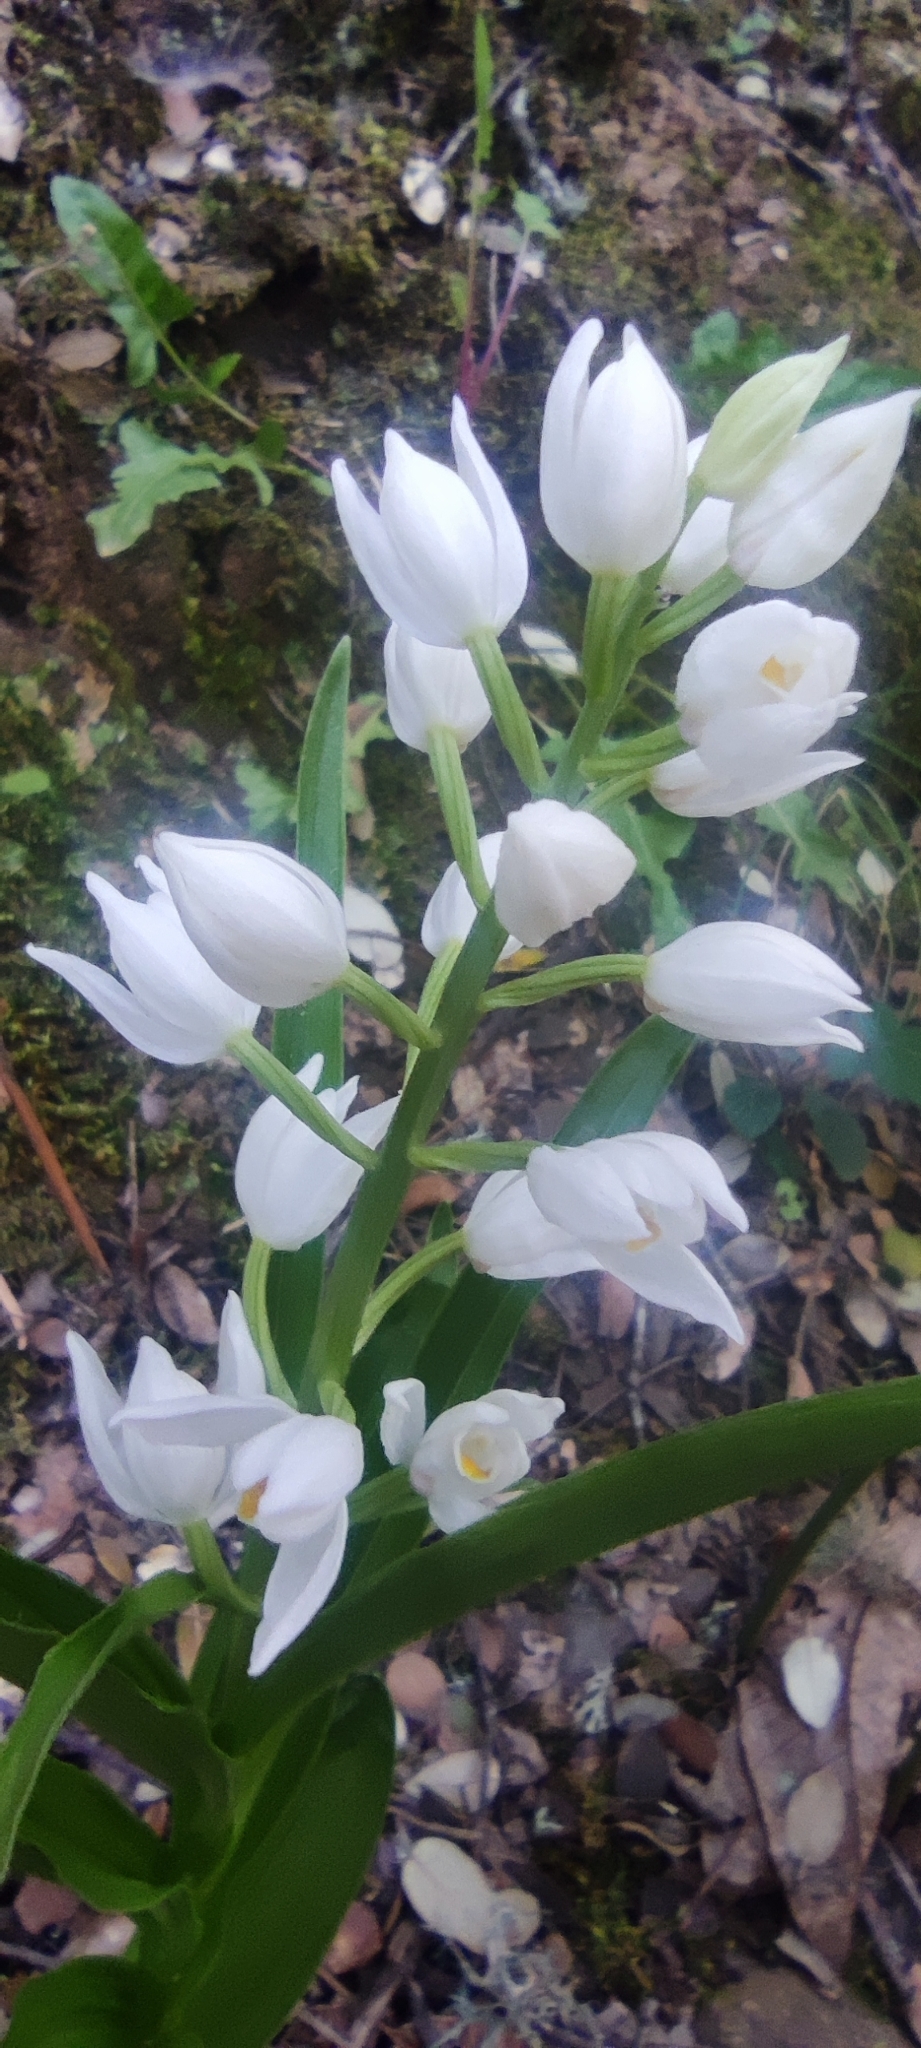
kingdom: Plantae
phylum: Tracheophyta
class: Liliopsida
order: Asparagales
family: Orchidaceae
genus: Cephalanthera
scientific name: Cephalanthera longifolia
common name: Narrow-leaved helleborine
